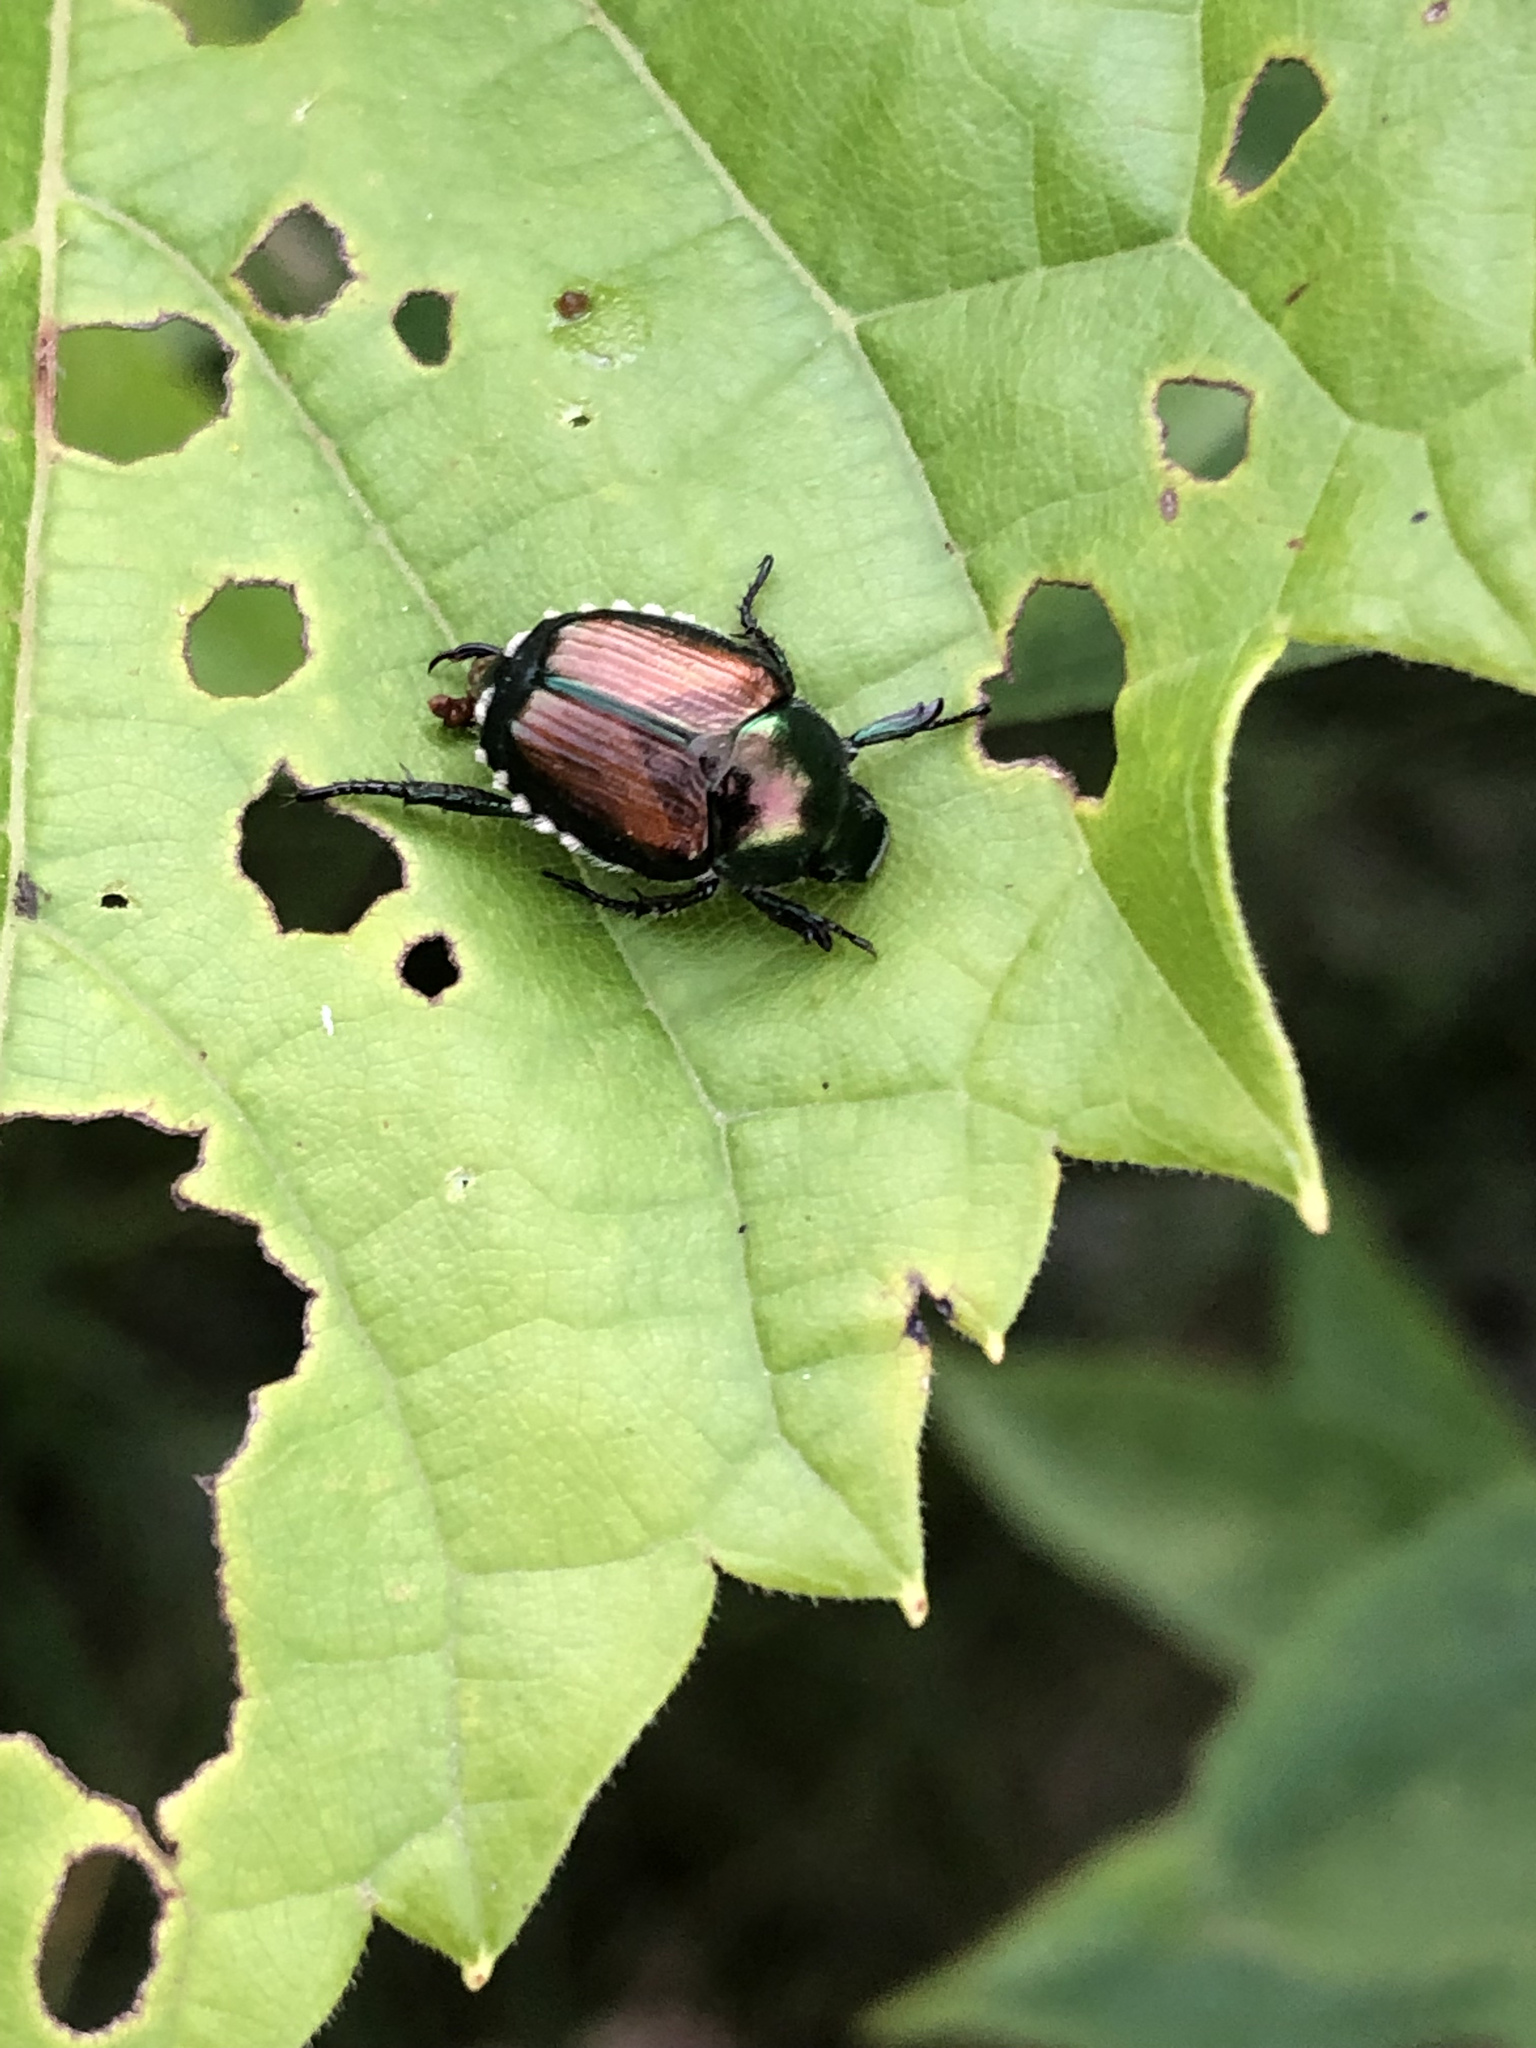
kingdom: Animalia
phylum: Arthropoda
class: Insecta
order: Coleoptera
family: Scarabaeidae
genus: Popillia
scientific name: Popillia japonica
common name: Japanese beetle
